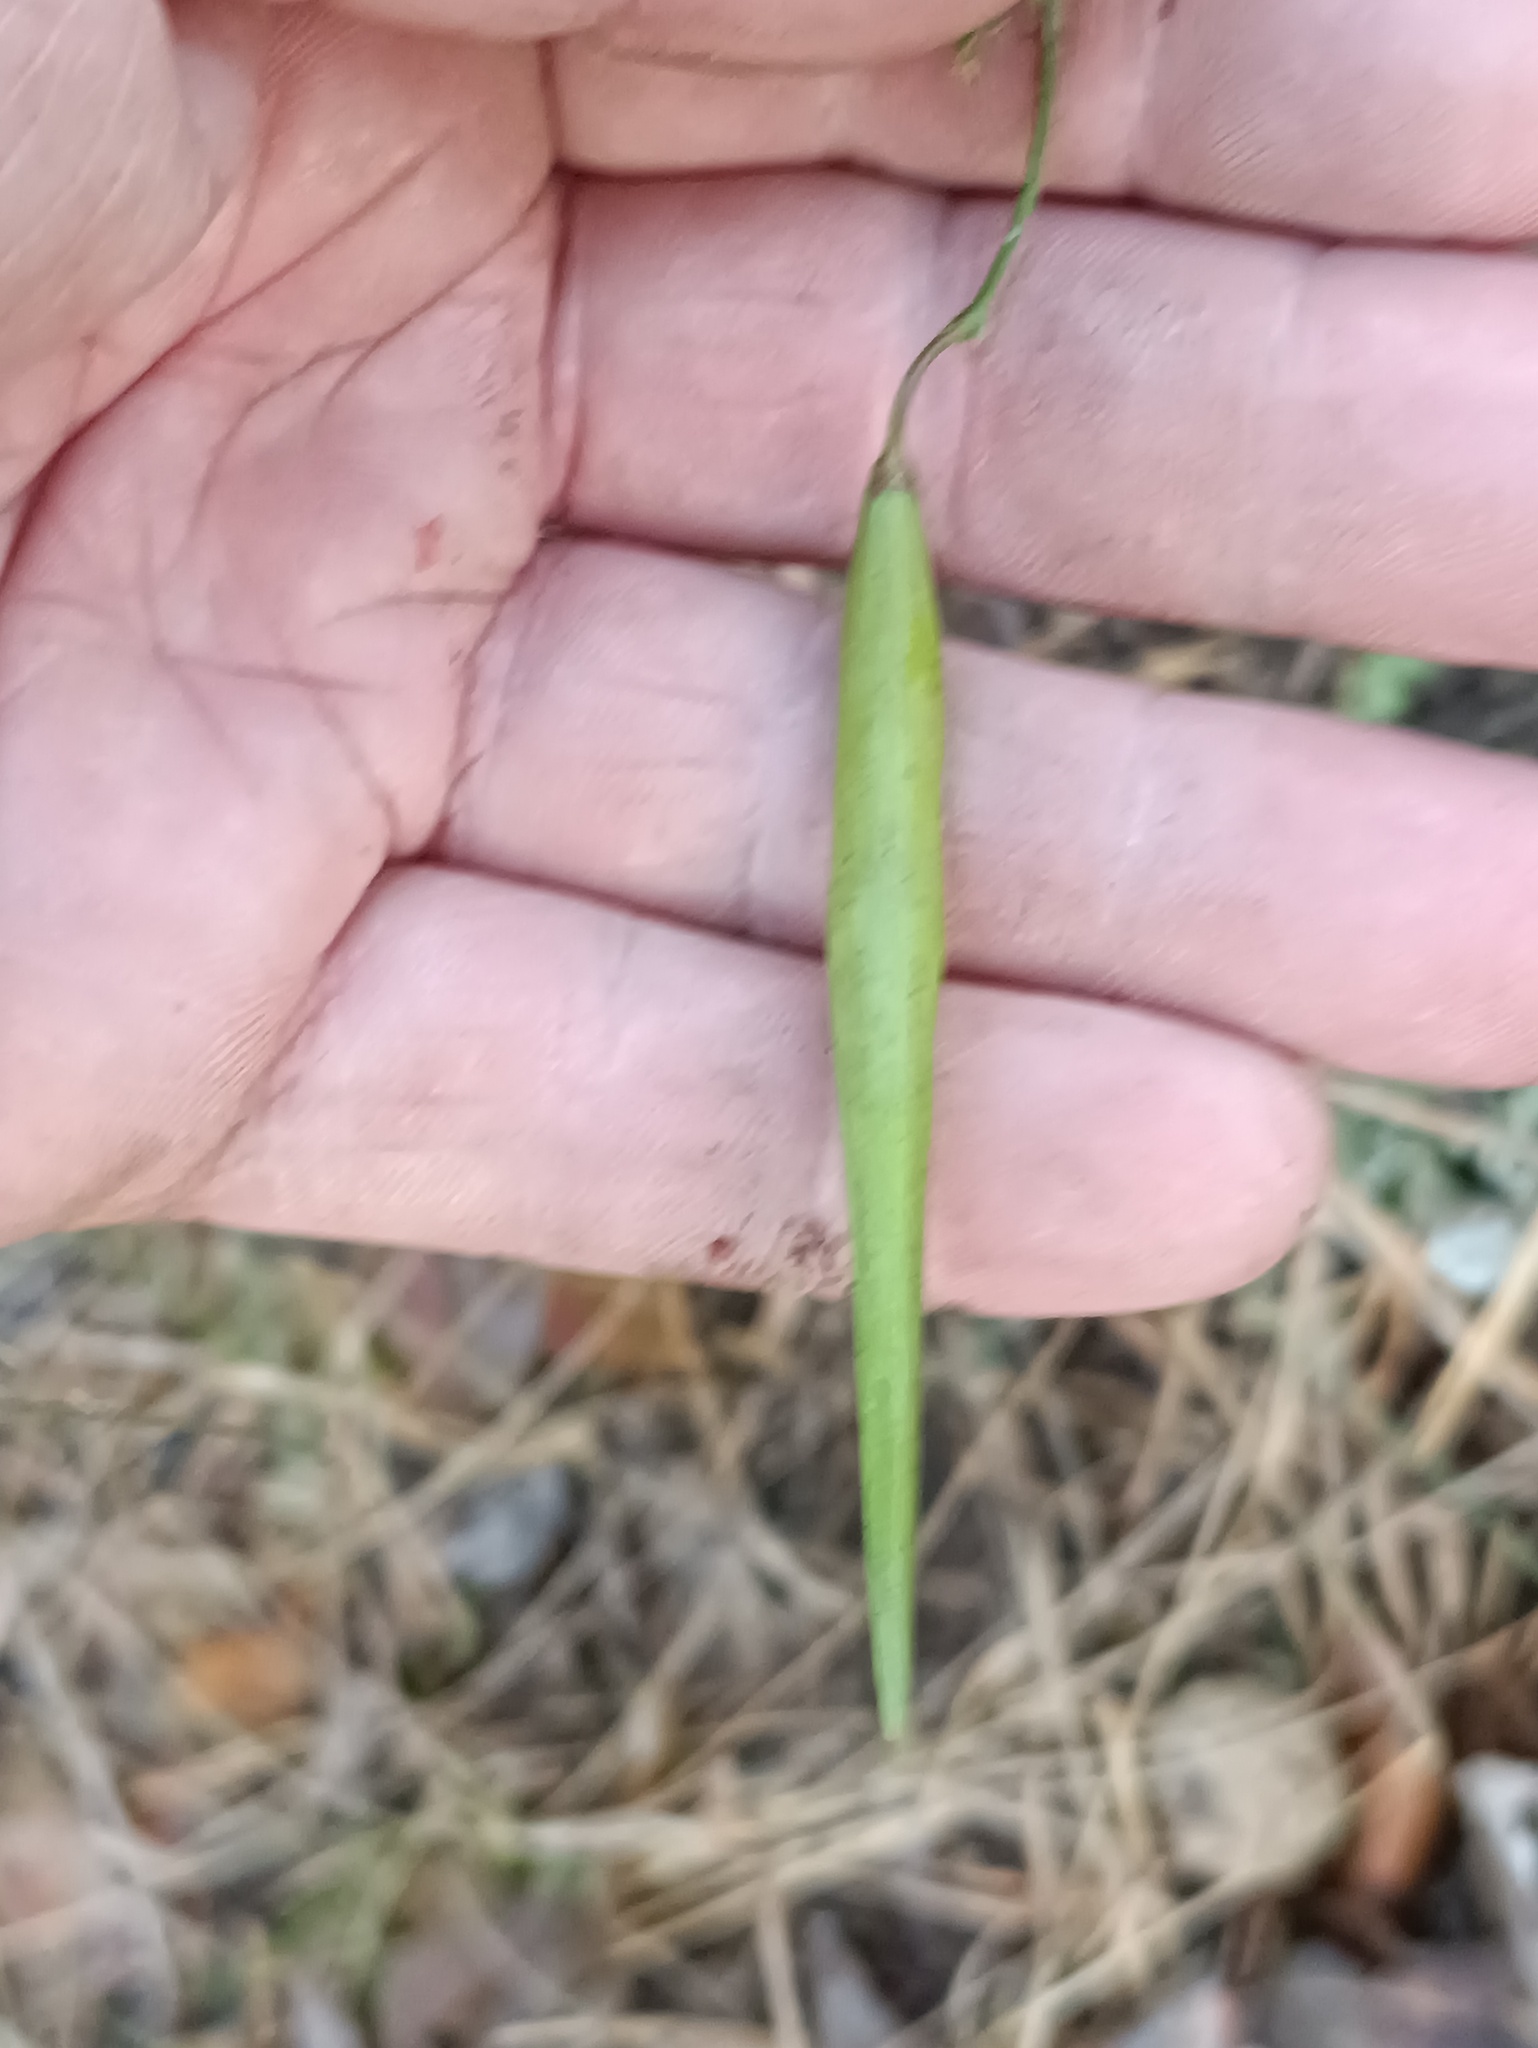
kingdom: Plantae
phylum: Tracheophyta
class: Magnoliopsida
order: Gentianales
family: Apocynaceae
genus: Vincetoxicum
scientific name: Vincetoxicum hirundinaria
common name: White swallowwort
